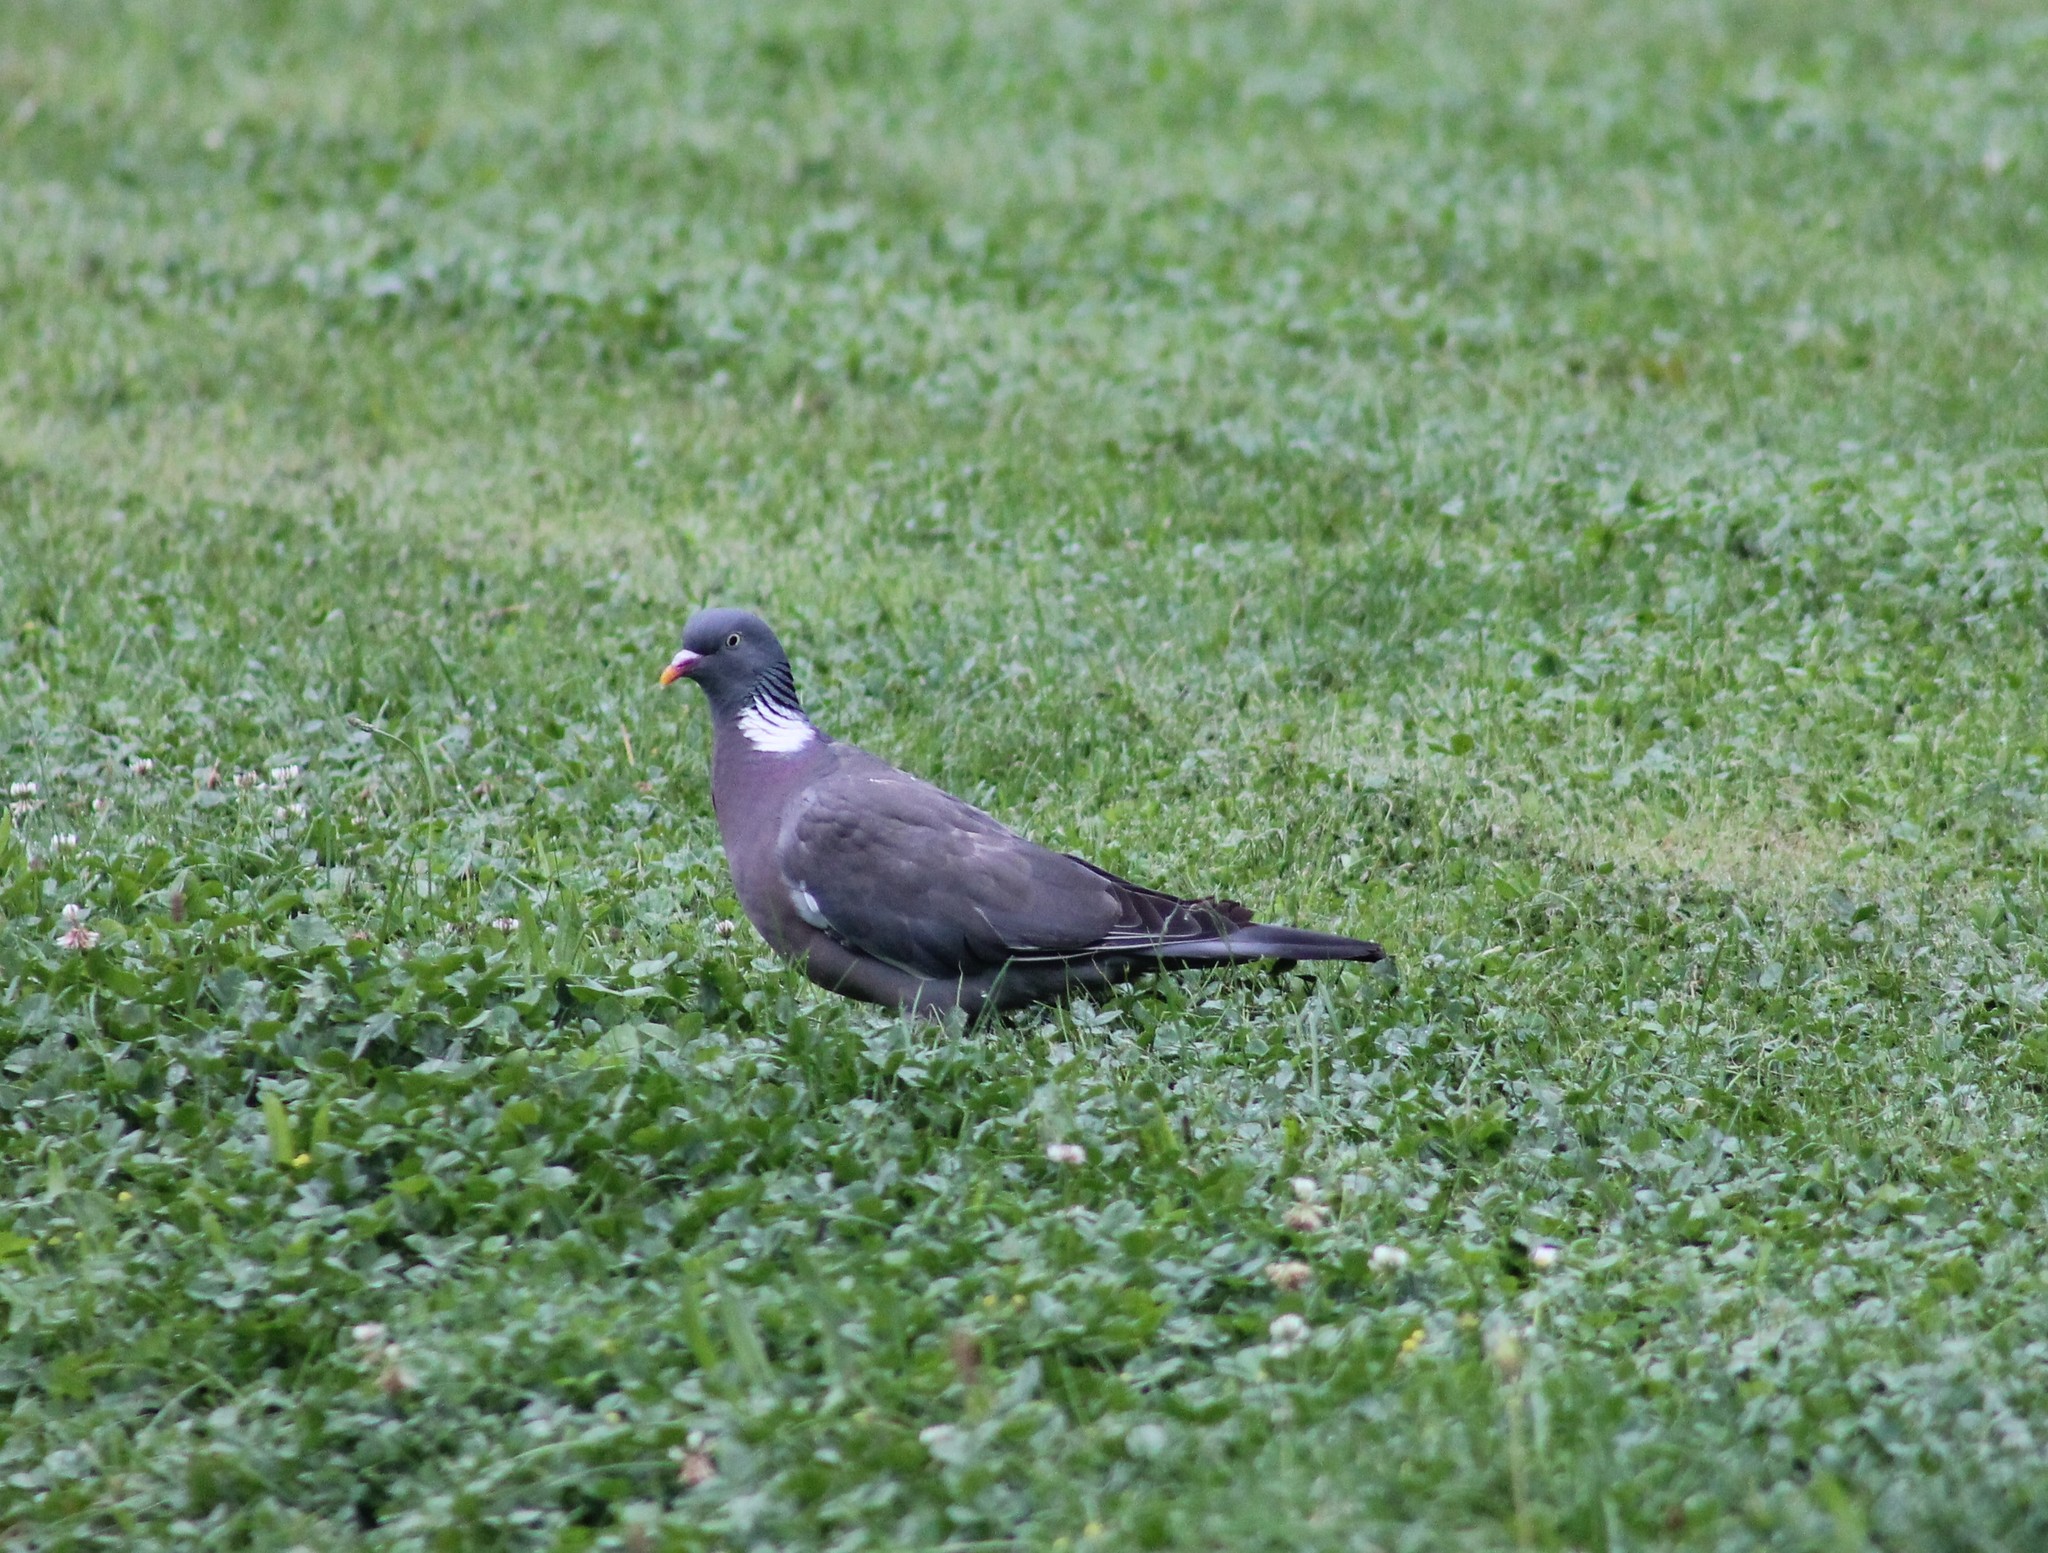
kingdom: Animalia
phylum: Chordata
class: Aves
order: Columbiformes
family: Columbidae
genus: Columba
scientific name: Columba palumbus
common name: Common wood pigeon
